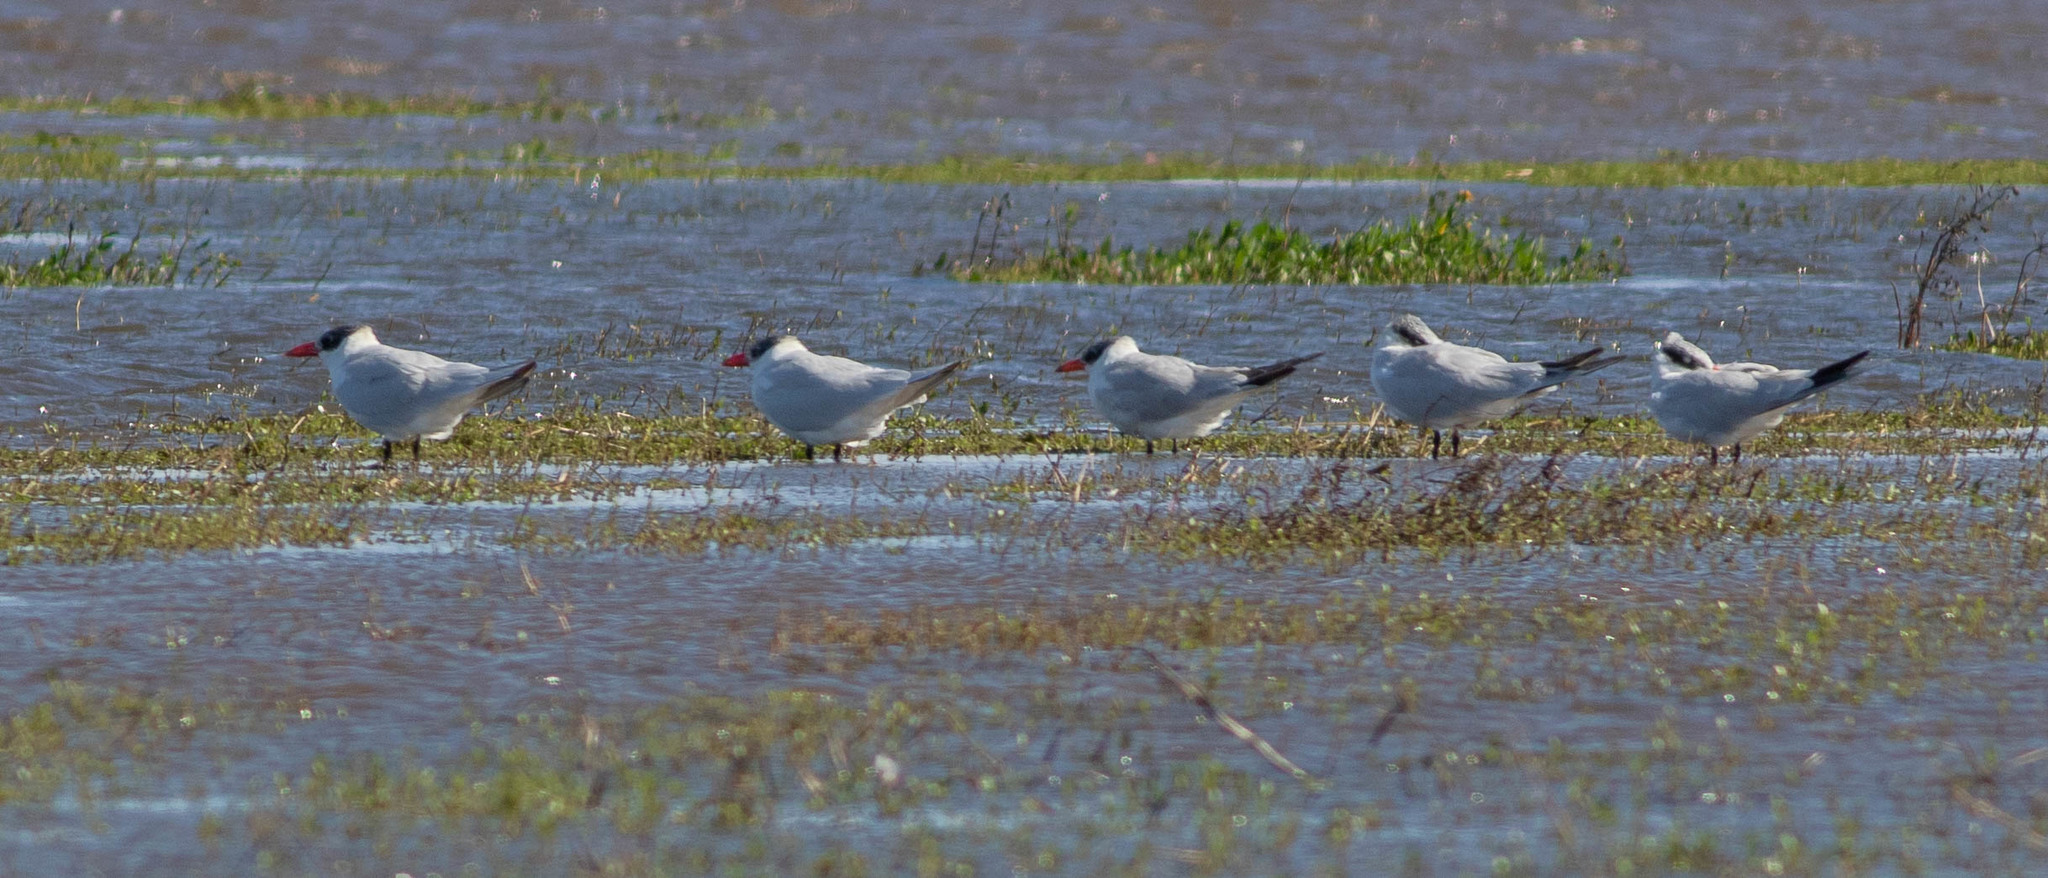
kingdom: Animalia
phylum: Chordata
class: Aves
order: Charadriiformes
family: Laridae
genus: Hydroprogne
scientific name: Hydroprogne caspia
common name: Caspian tern
